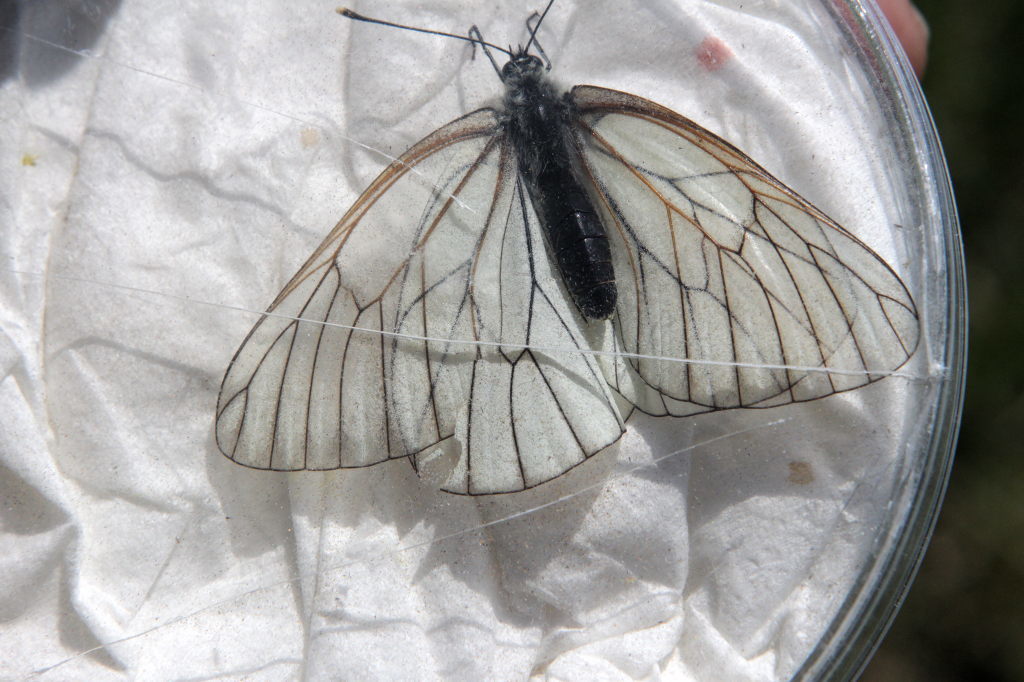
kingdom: Animalia
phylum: Arthropoda
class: Insecta
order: Lepidoptera
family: Pieridae
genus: Aporia
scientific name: Aporia crataegi
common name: Black-veined white
